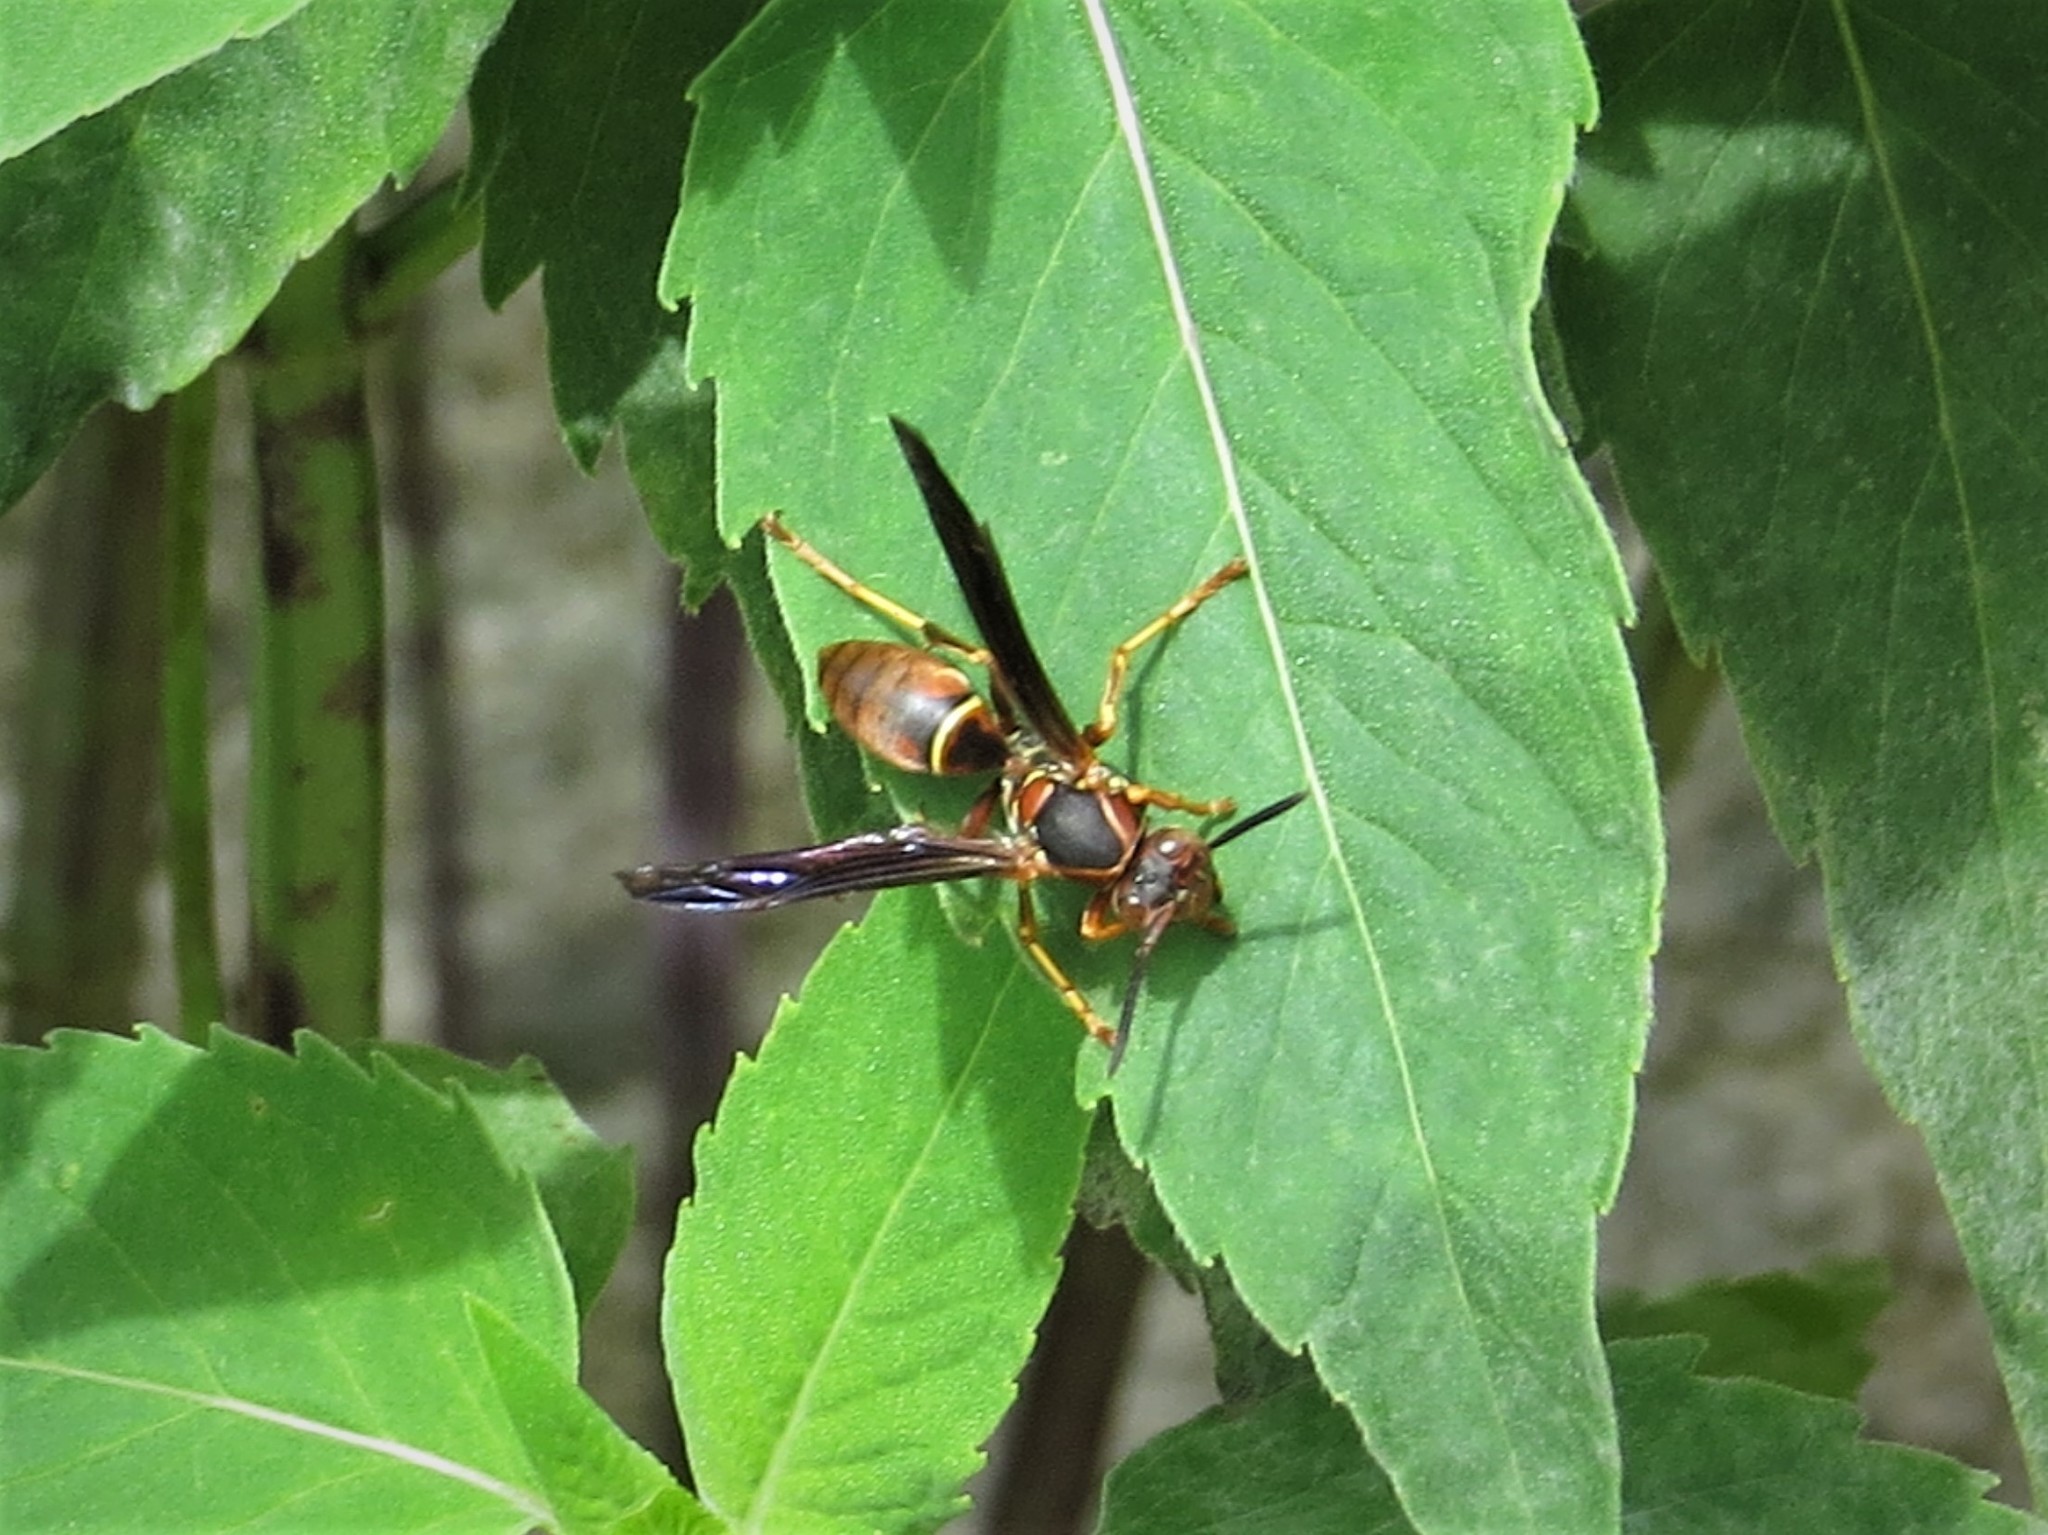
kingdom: Animalia
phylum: Arthropoda
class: Insecta
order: Hymenoptera
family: Eumenidae
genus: Polistes
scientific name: Polistes fuscatus
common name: Dark paper wasp
